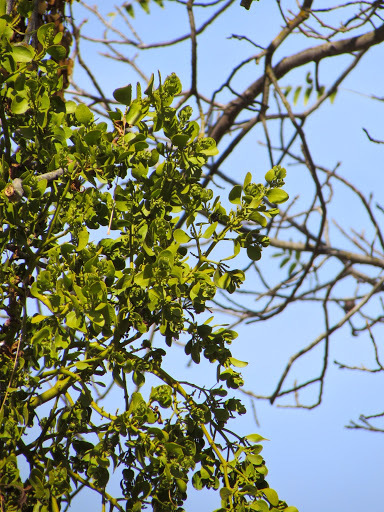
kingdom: Plantae
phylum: Tracheophyta
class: Magnoliopsida
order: Santalales
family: Viscaceae
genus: Phoradendron
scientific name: Phoradendron
